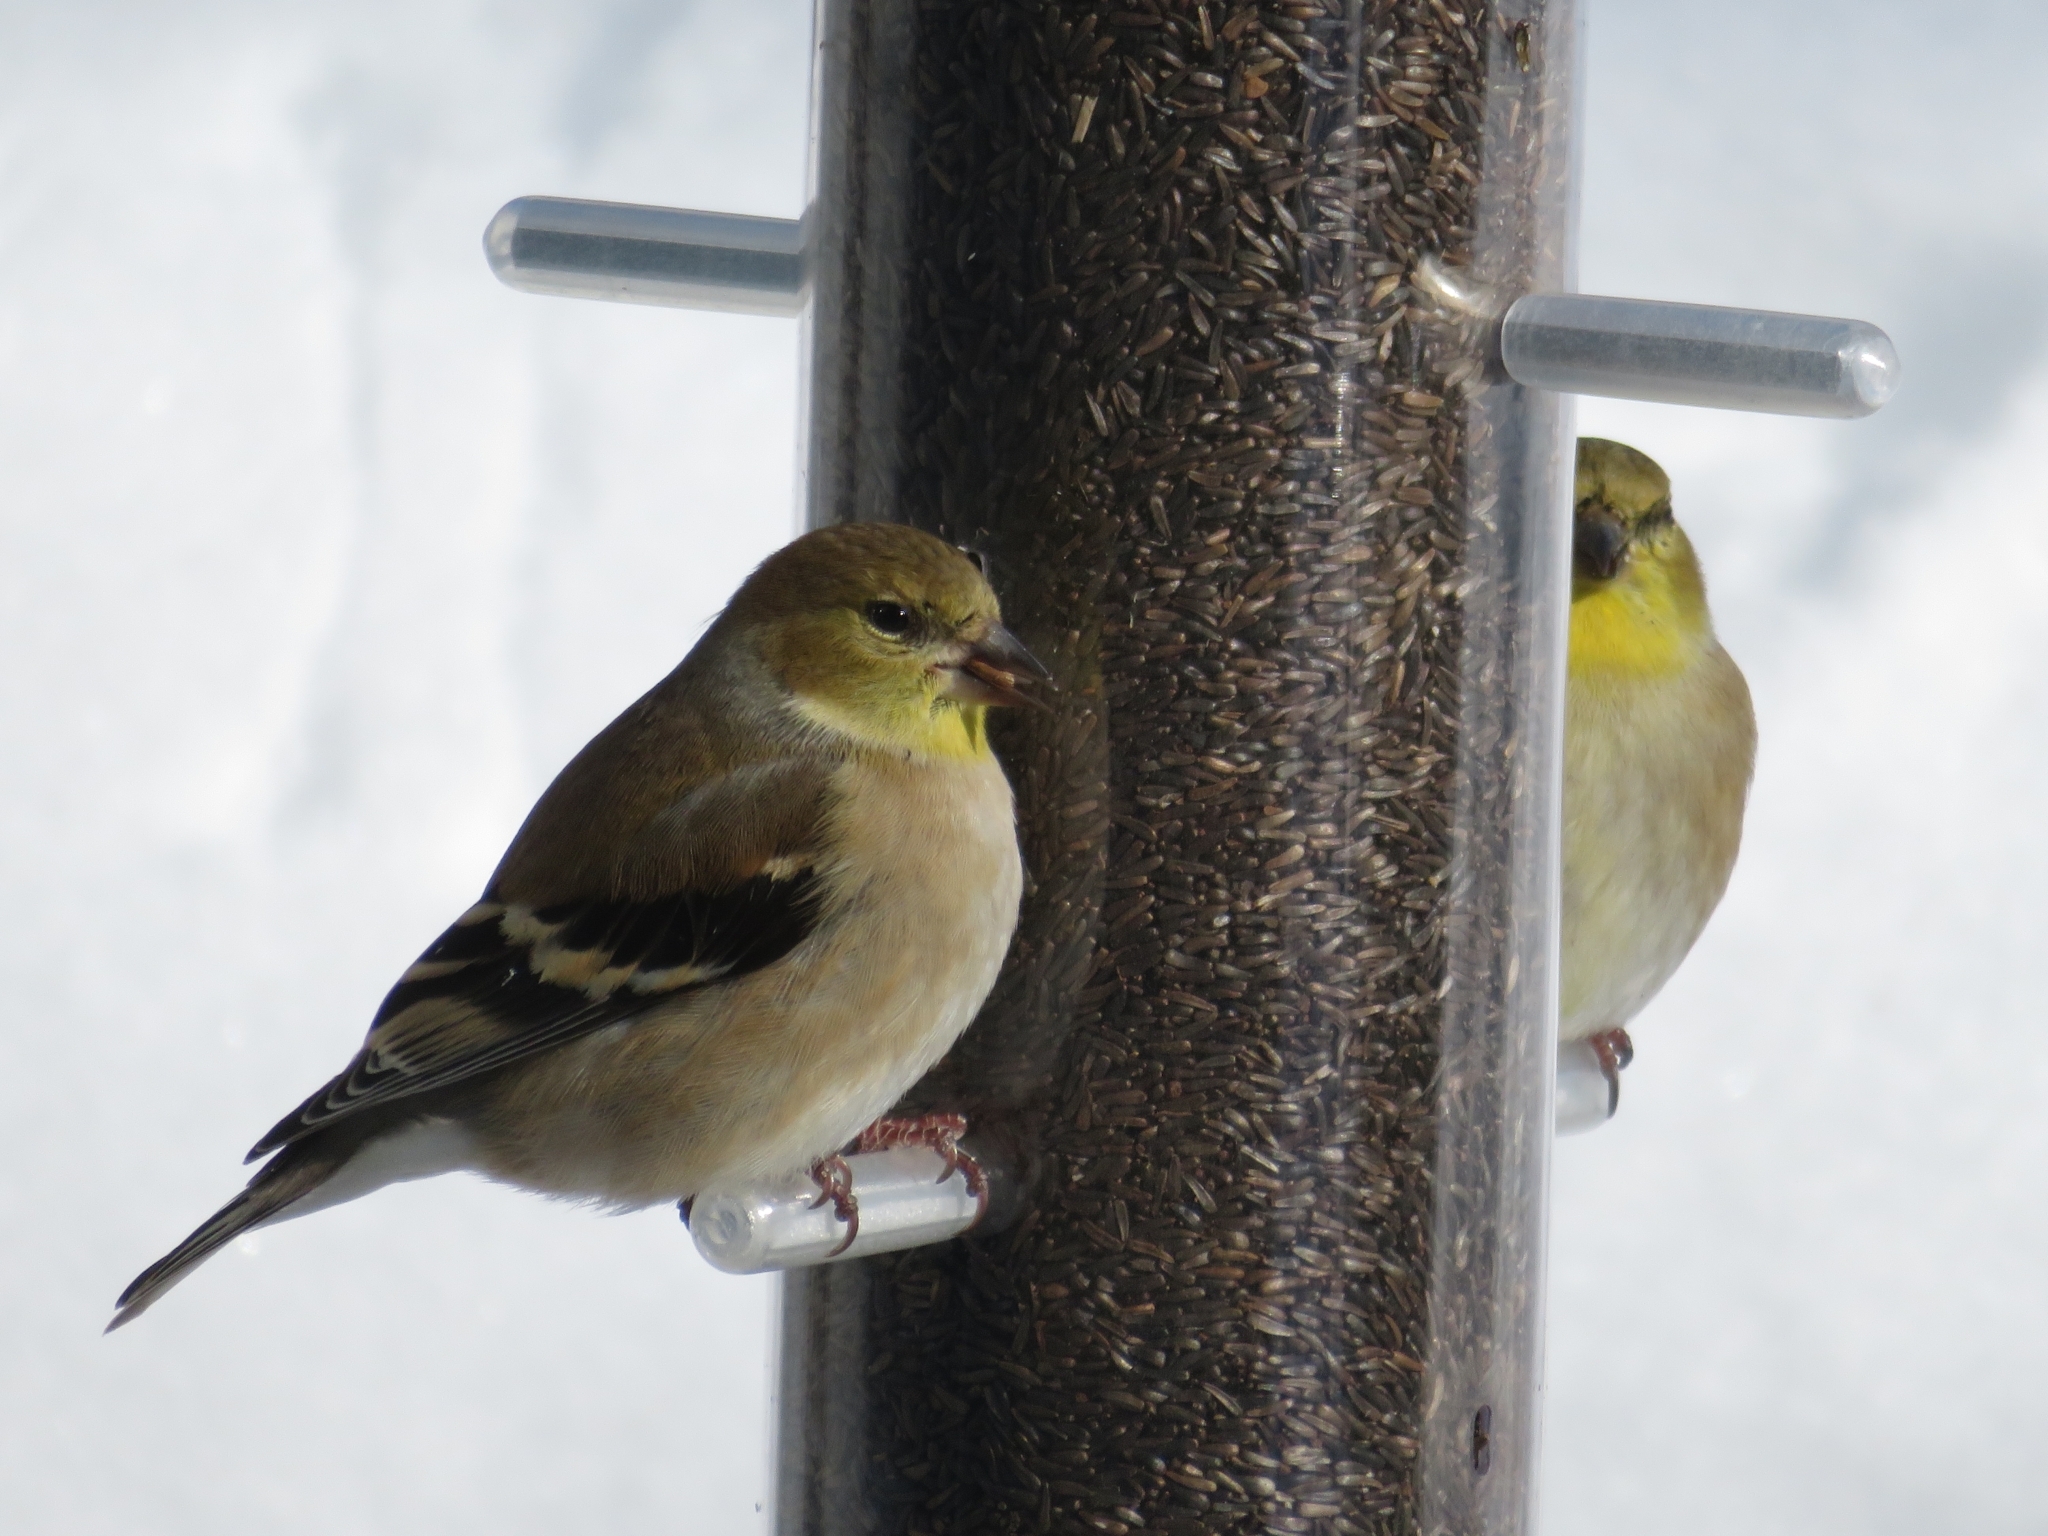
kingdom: Animalia
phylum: Chordata
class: Aves
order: Passeriformes
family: Fringillidae
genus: Spinus
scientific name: Spinus tristis
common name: American goldfinch
